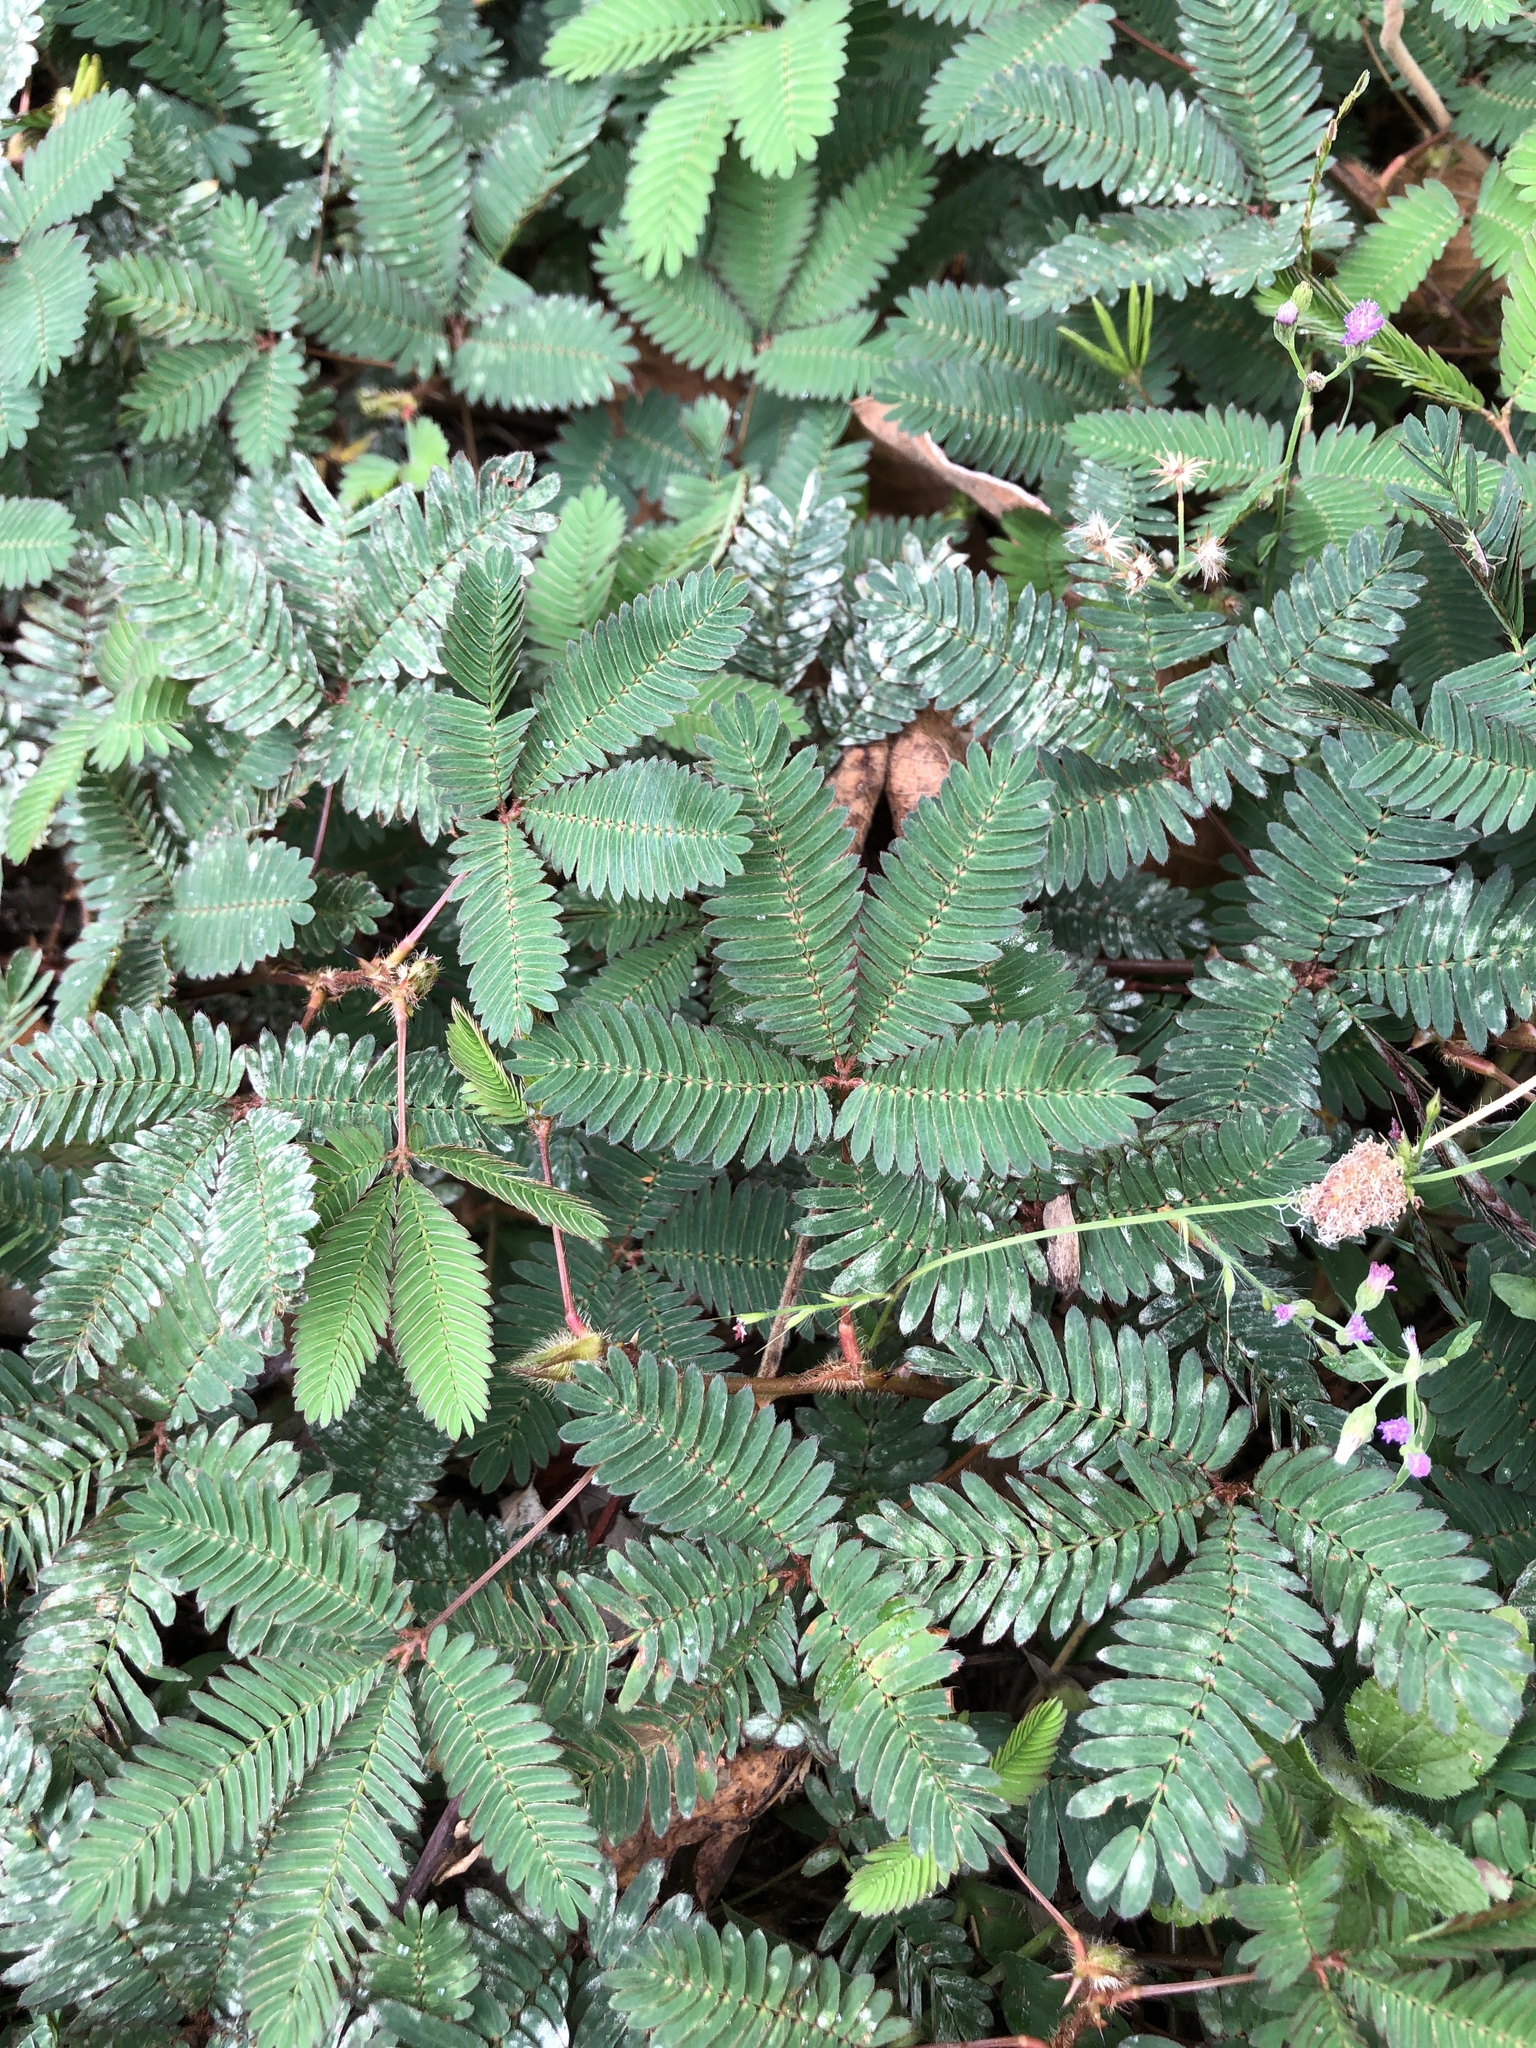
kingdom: Plantae
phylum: Tracheophyta
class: Magnoliopsida
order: Fabales
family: Fabaceae
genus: Mimosa
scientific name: Mimosa pudica
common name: Sensitive plant
